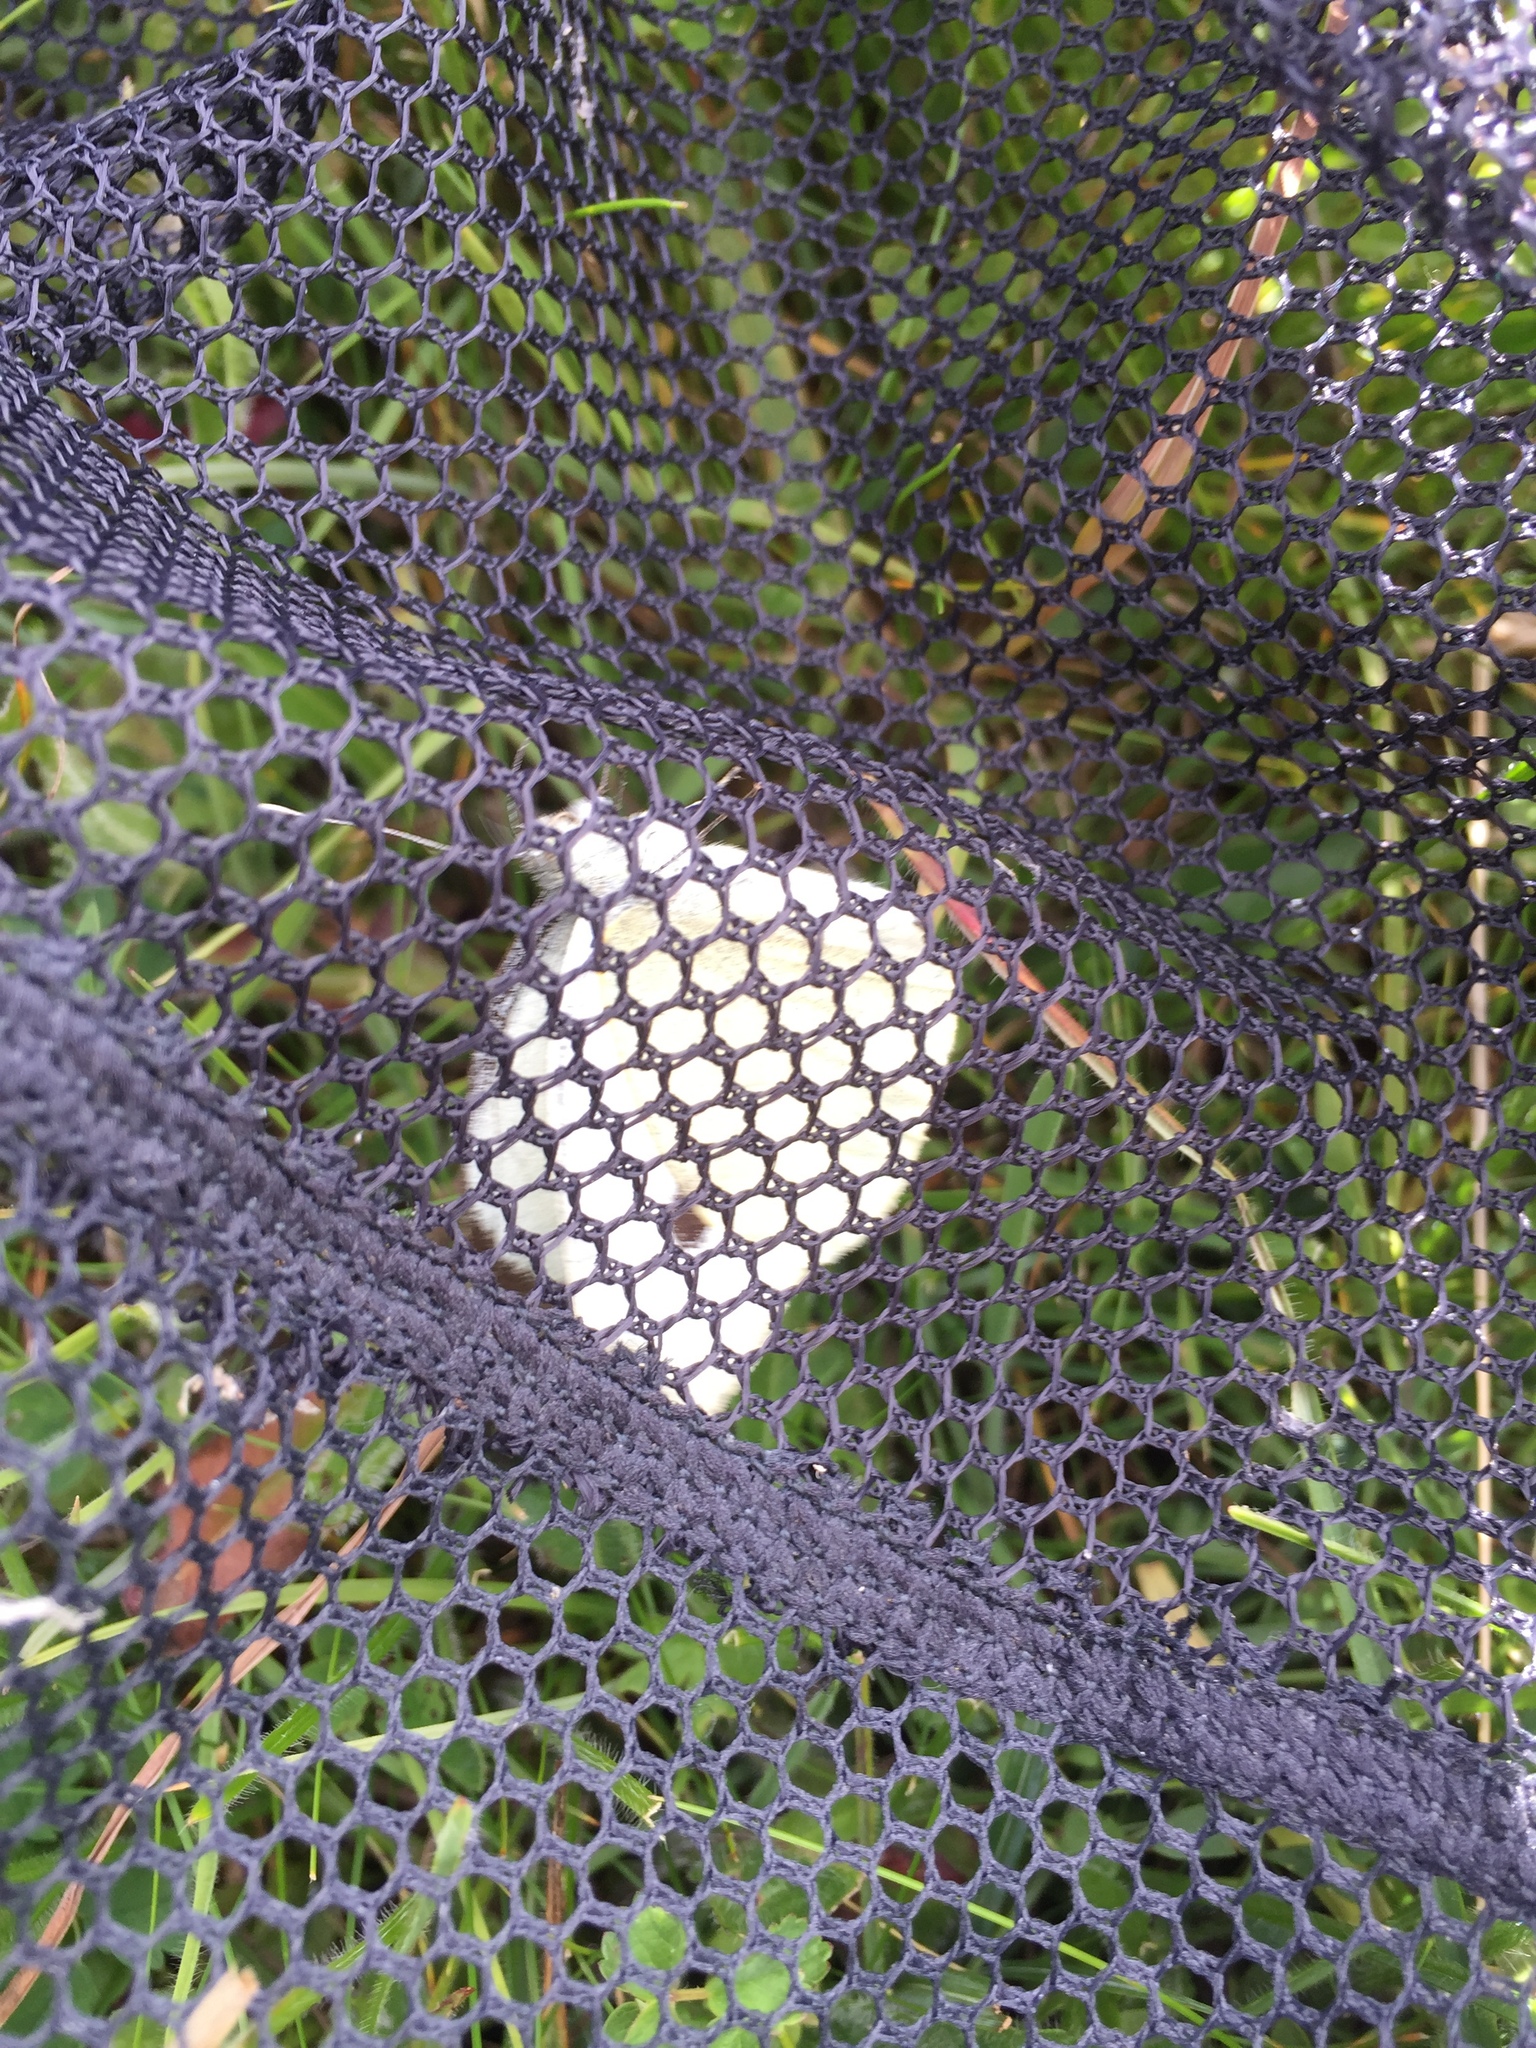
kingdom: Animalia
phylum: Arthropoda
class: Insecta
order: Lepidoptera
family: Pieridae
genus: Pieris
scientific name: Pieris brassicae
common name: Large white
